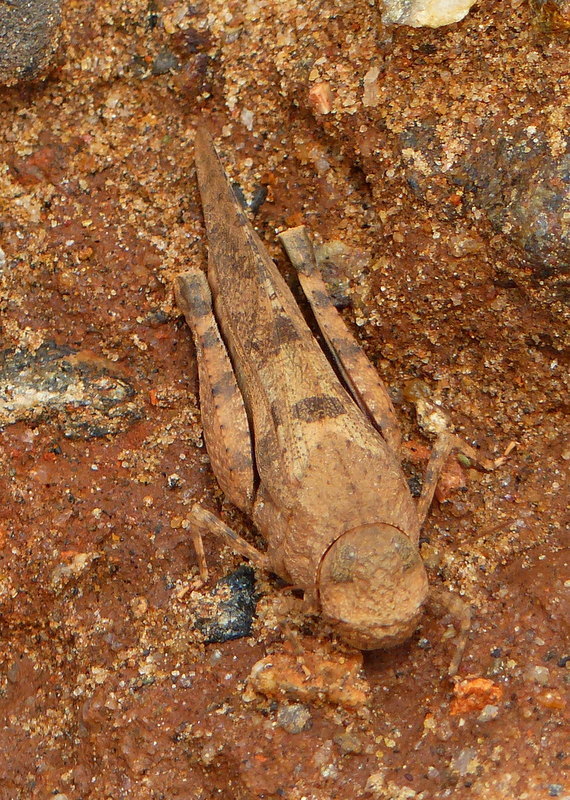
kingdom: Animalia
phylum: Arthropoda
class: Insecta
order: Orthoptera
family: Acrididae
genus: Pycnodictya
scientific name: Pycnodictya galinieri
